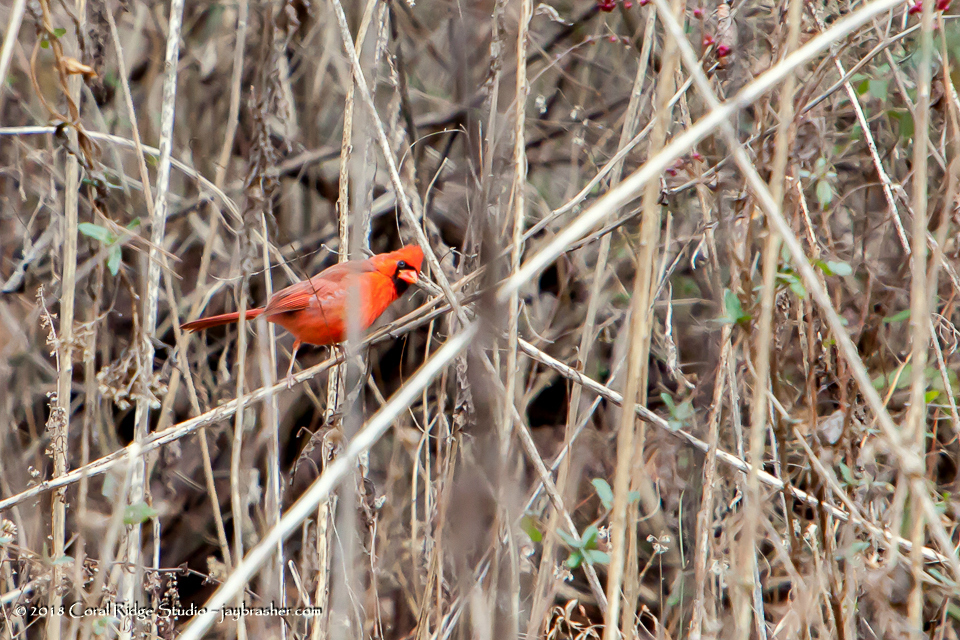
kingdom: Animalia
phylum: Chordata
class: Aves
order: Passeriformes
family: Cardinalidae
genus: Cardinalis
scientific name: Cardinalis cardinalis
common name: Northern cardinal
